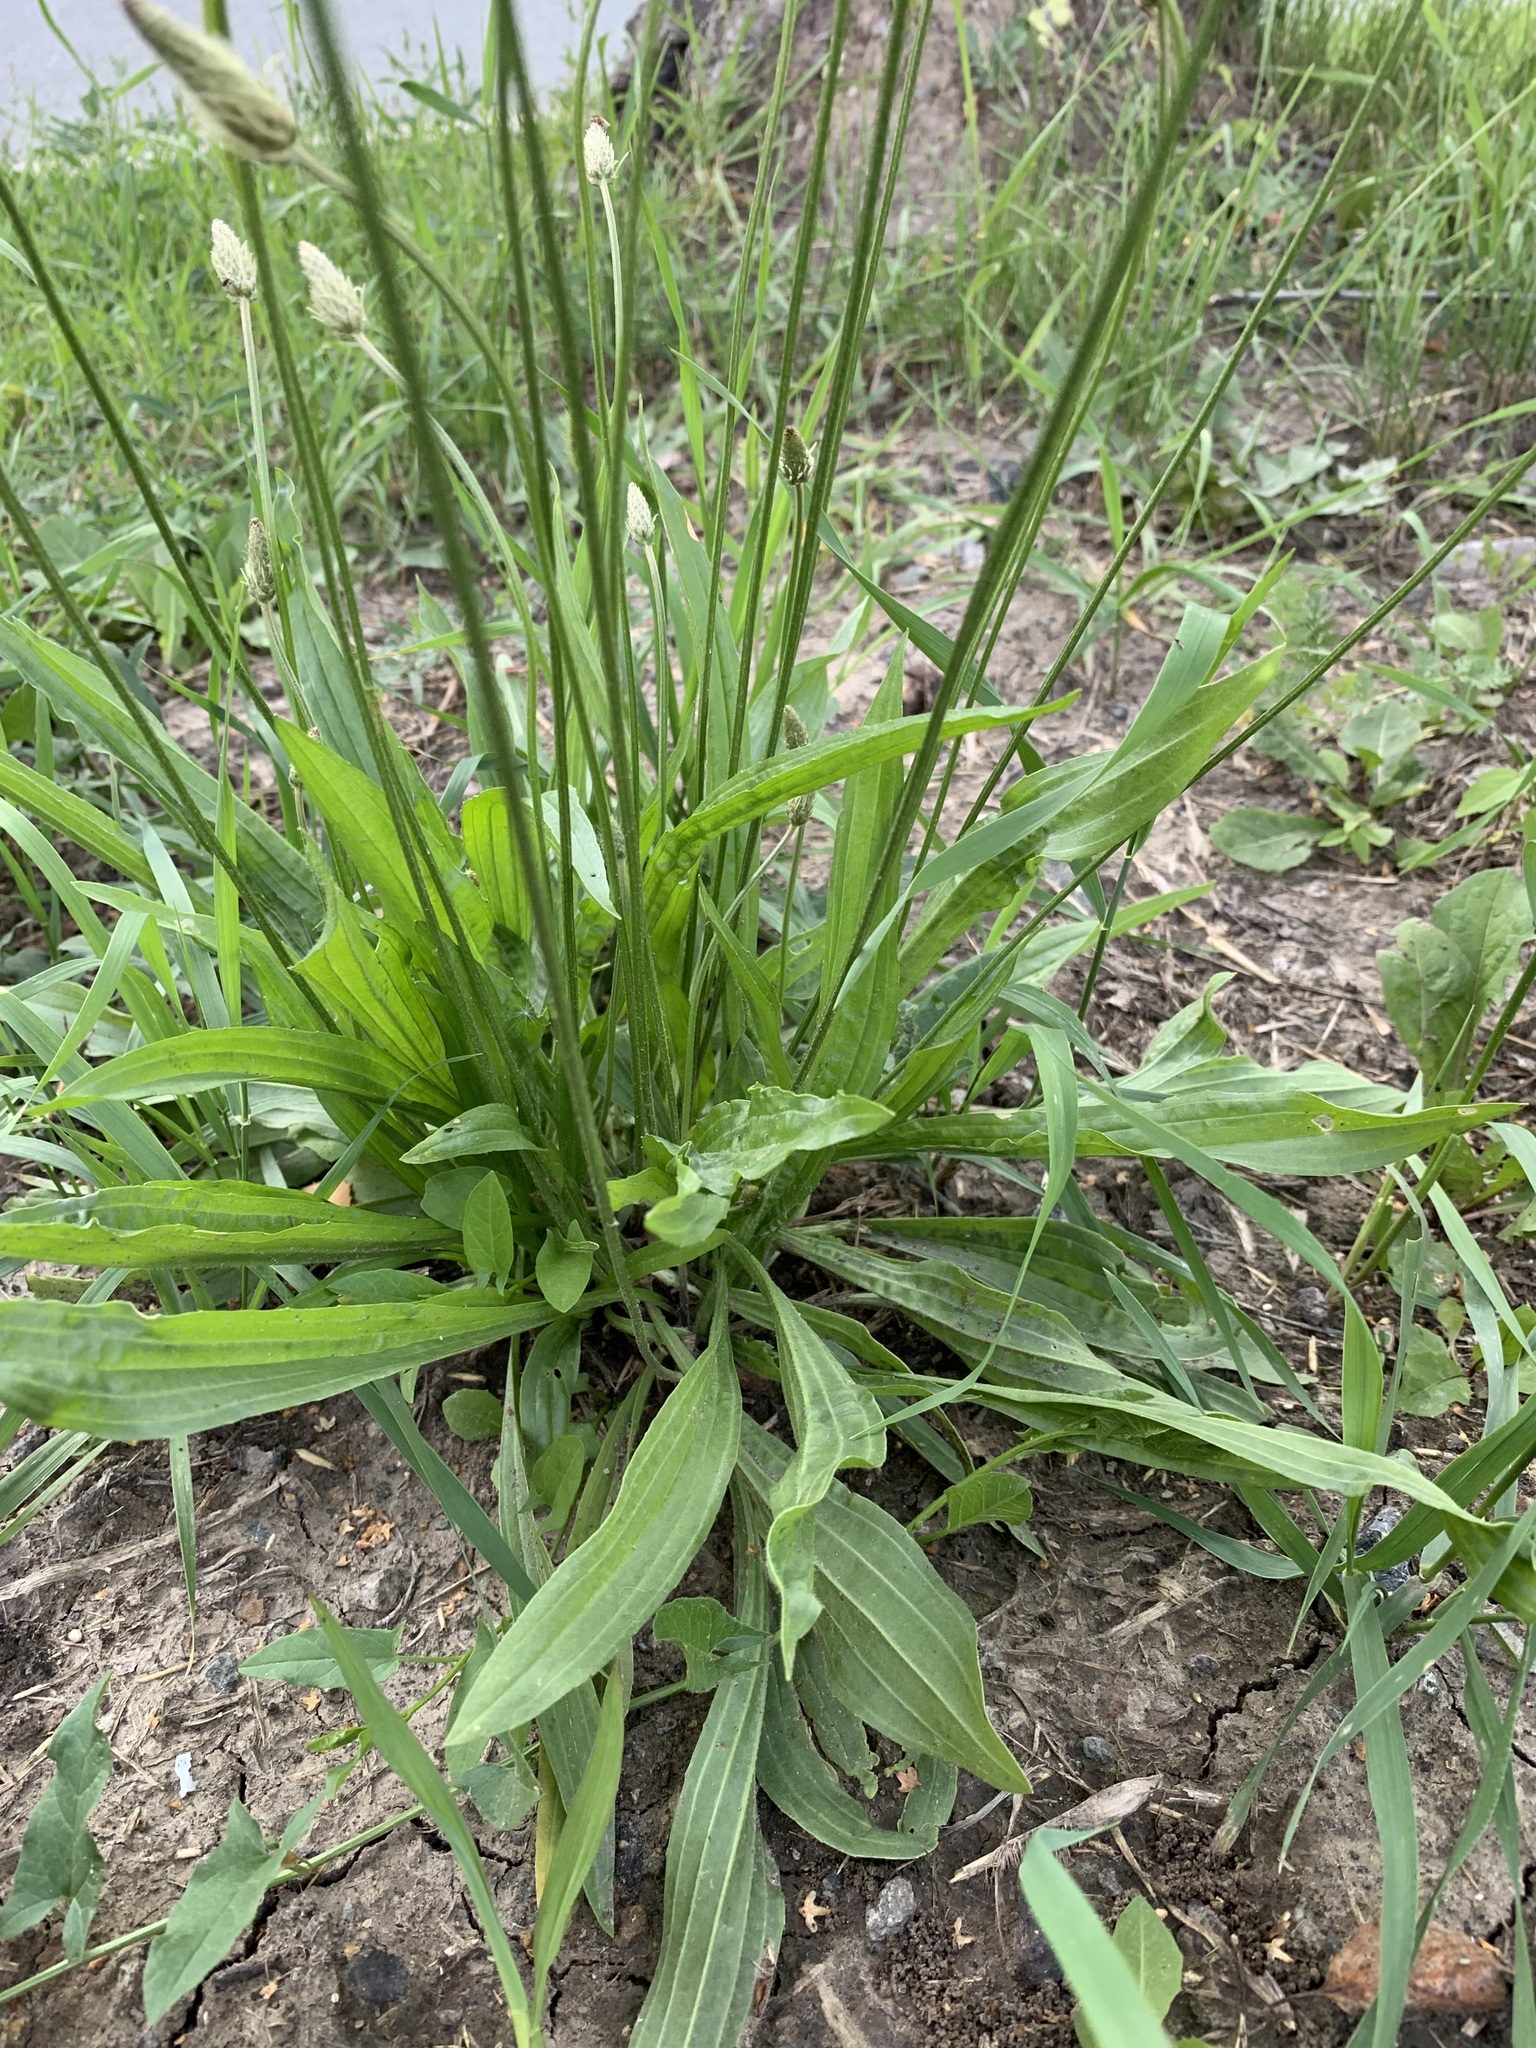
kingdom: Plantae
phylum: Tracheophyta
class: Magnoliopsida
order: Lamiales
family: Plantaginaceae
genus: Plantago
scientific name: Plantago lanceolata
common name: Ribwort plantain
